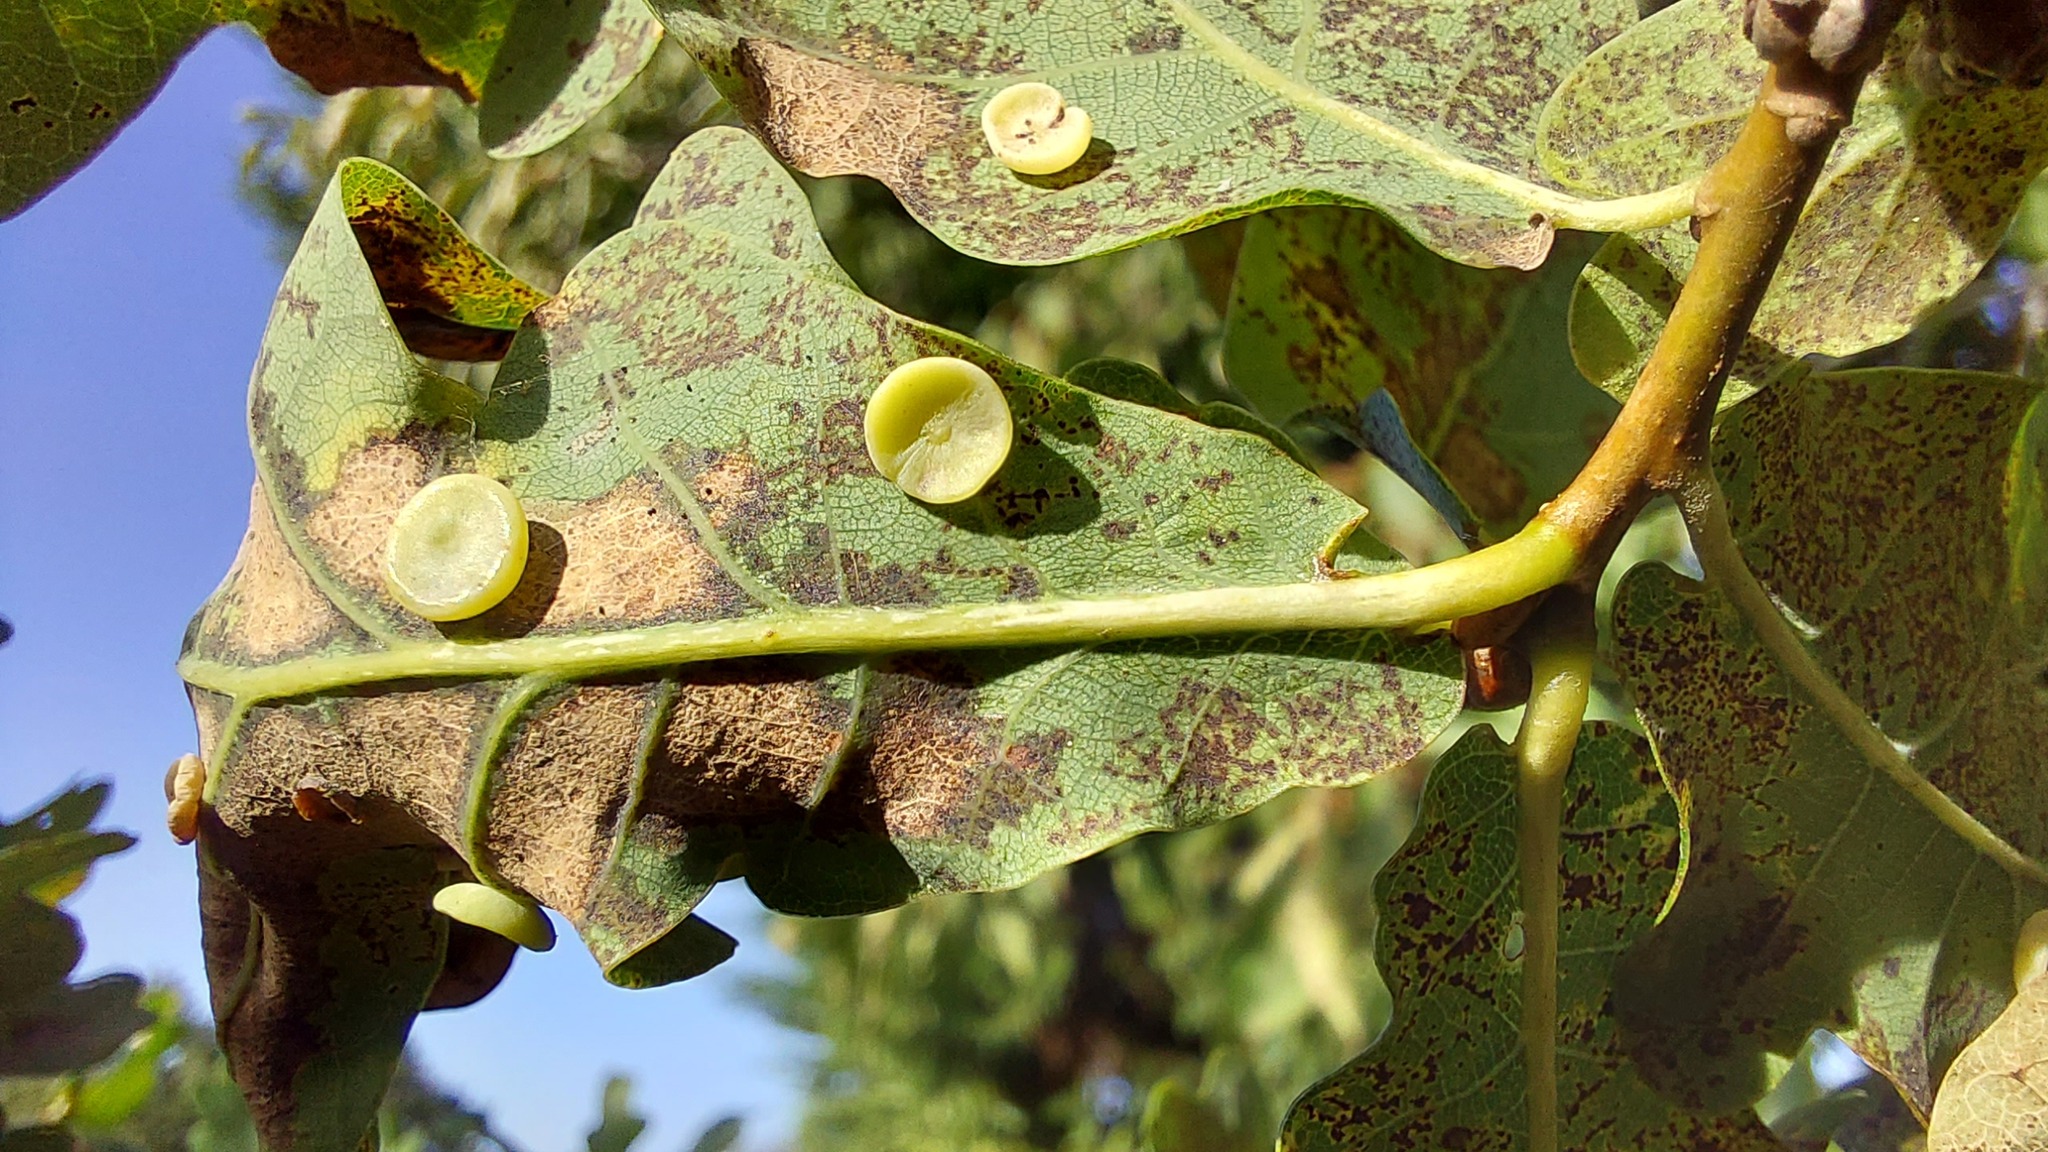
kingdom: Animalia
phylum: Arthropoda
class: Insecta
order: Hymenoptera
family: Cynipidae
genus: Neuroterus
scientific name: Neuroterus albipes
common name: Smooth spangle gall
